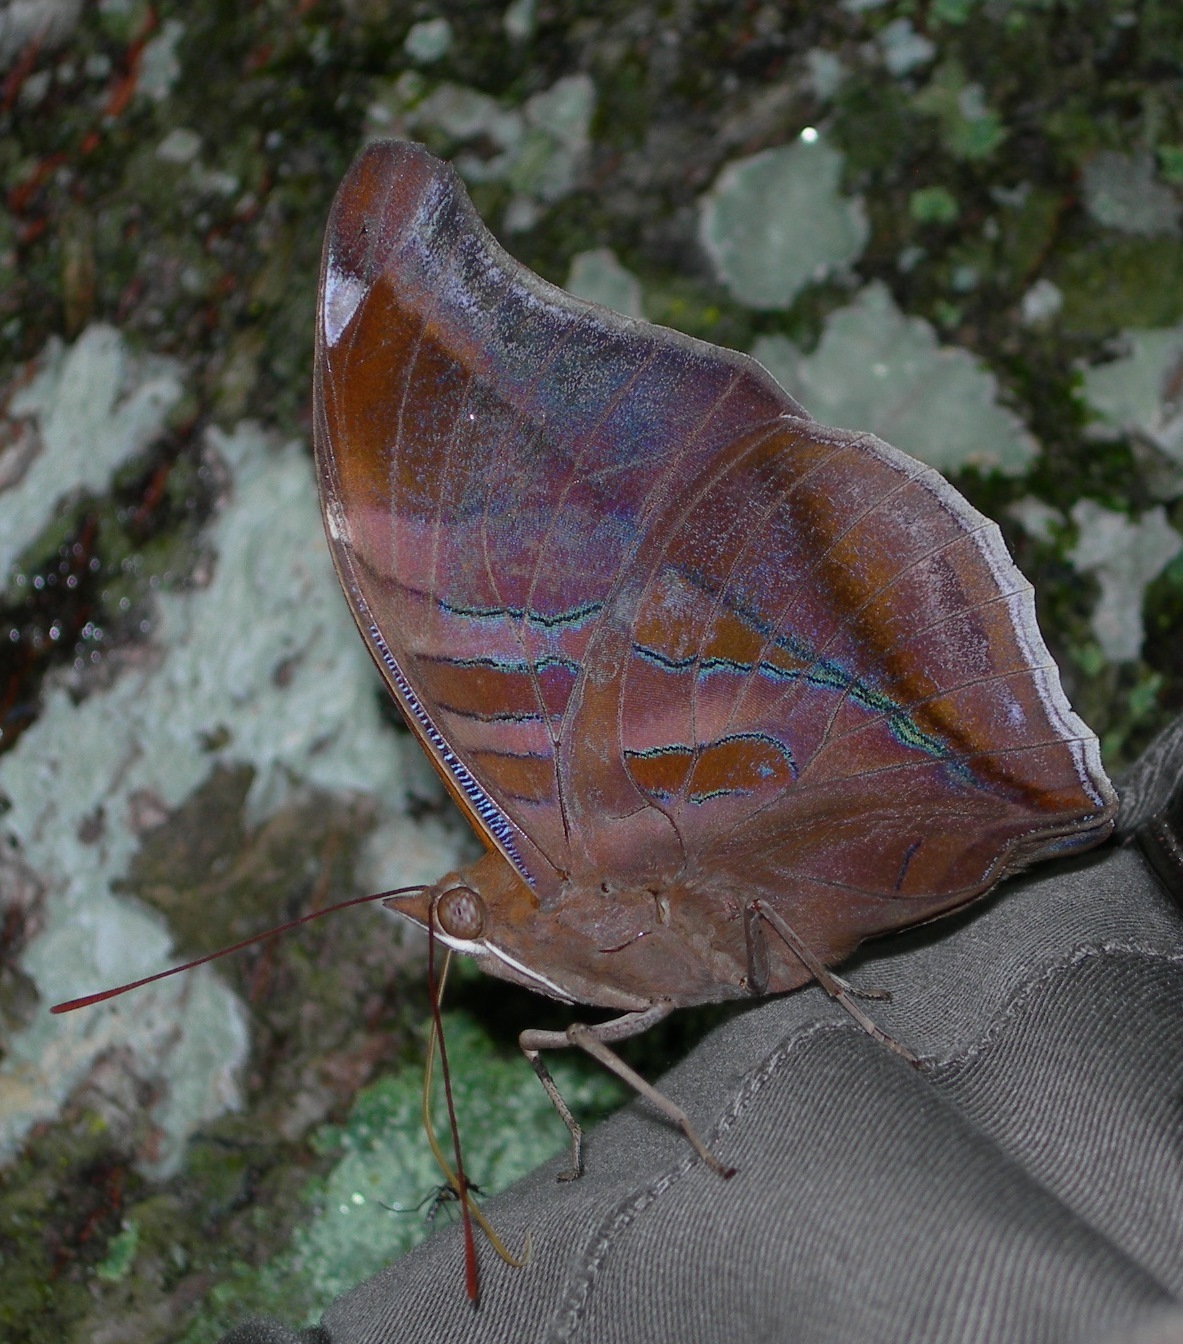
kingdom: Animalia
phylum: Arthropoda
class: Insecta
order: Lepidoptera
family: Nymphalidae
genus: Historis
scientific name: Historis odius
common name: Orion cecropian
